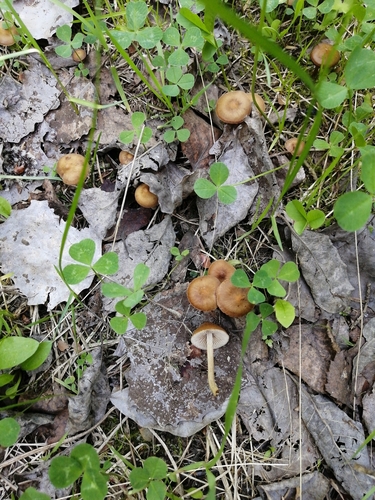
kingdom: Fungi
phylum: Basidiomycota
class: Agaricomycetes
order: Agaricales
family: Inocybaceae
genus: Inocybe
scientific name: Inocybe
